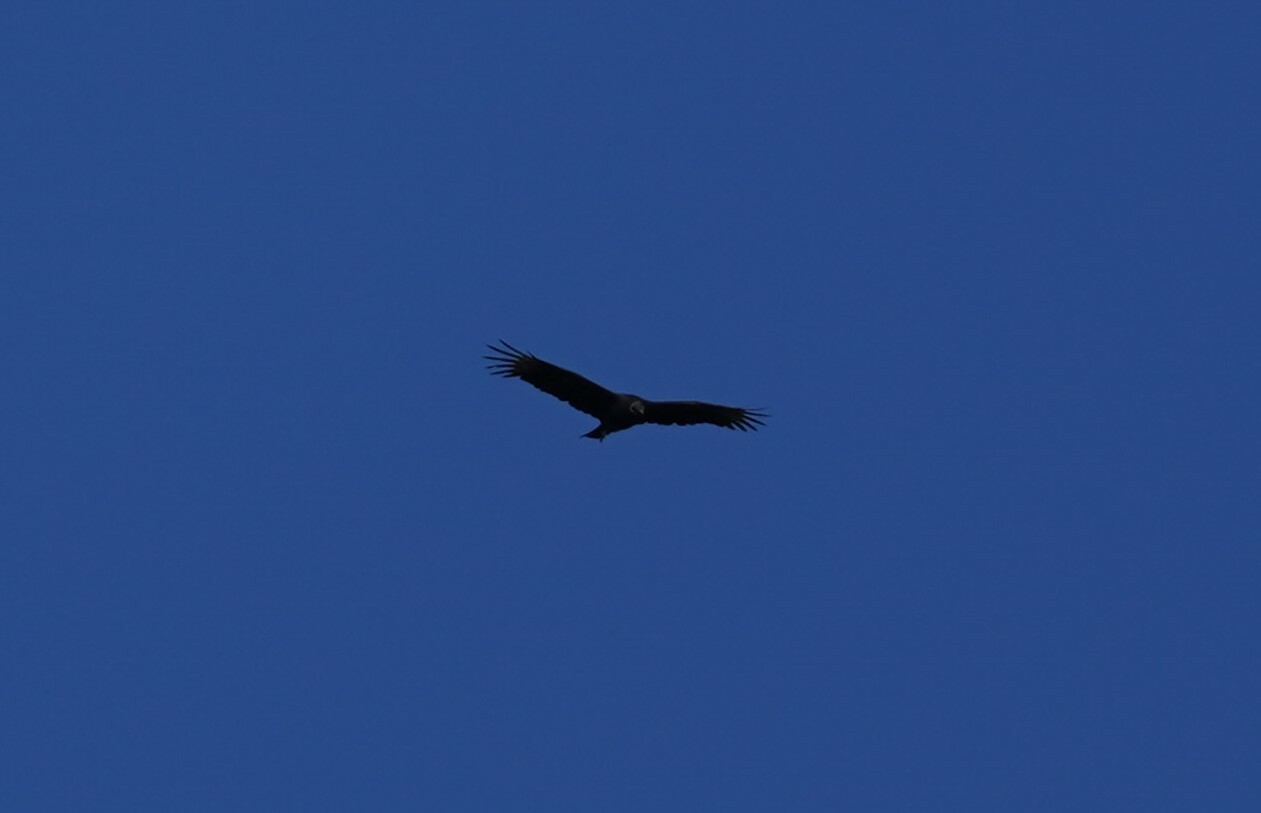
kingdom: Animalia
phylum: Chordata
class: Aves
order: Accipitriformes
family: Cathartidae
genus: Coragyps
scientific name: Coragyps atratus
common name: Black vulture
